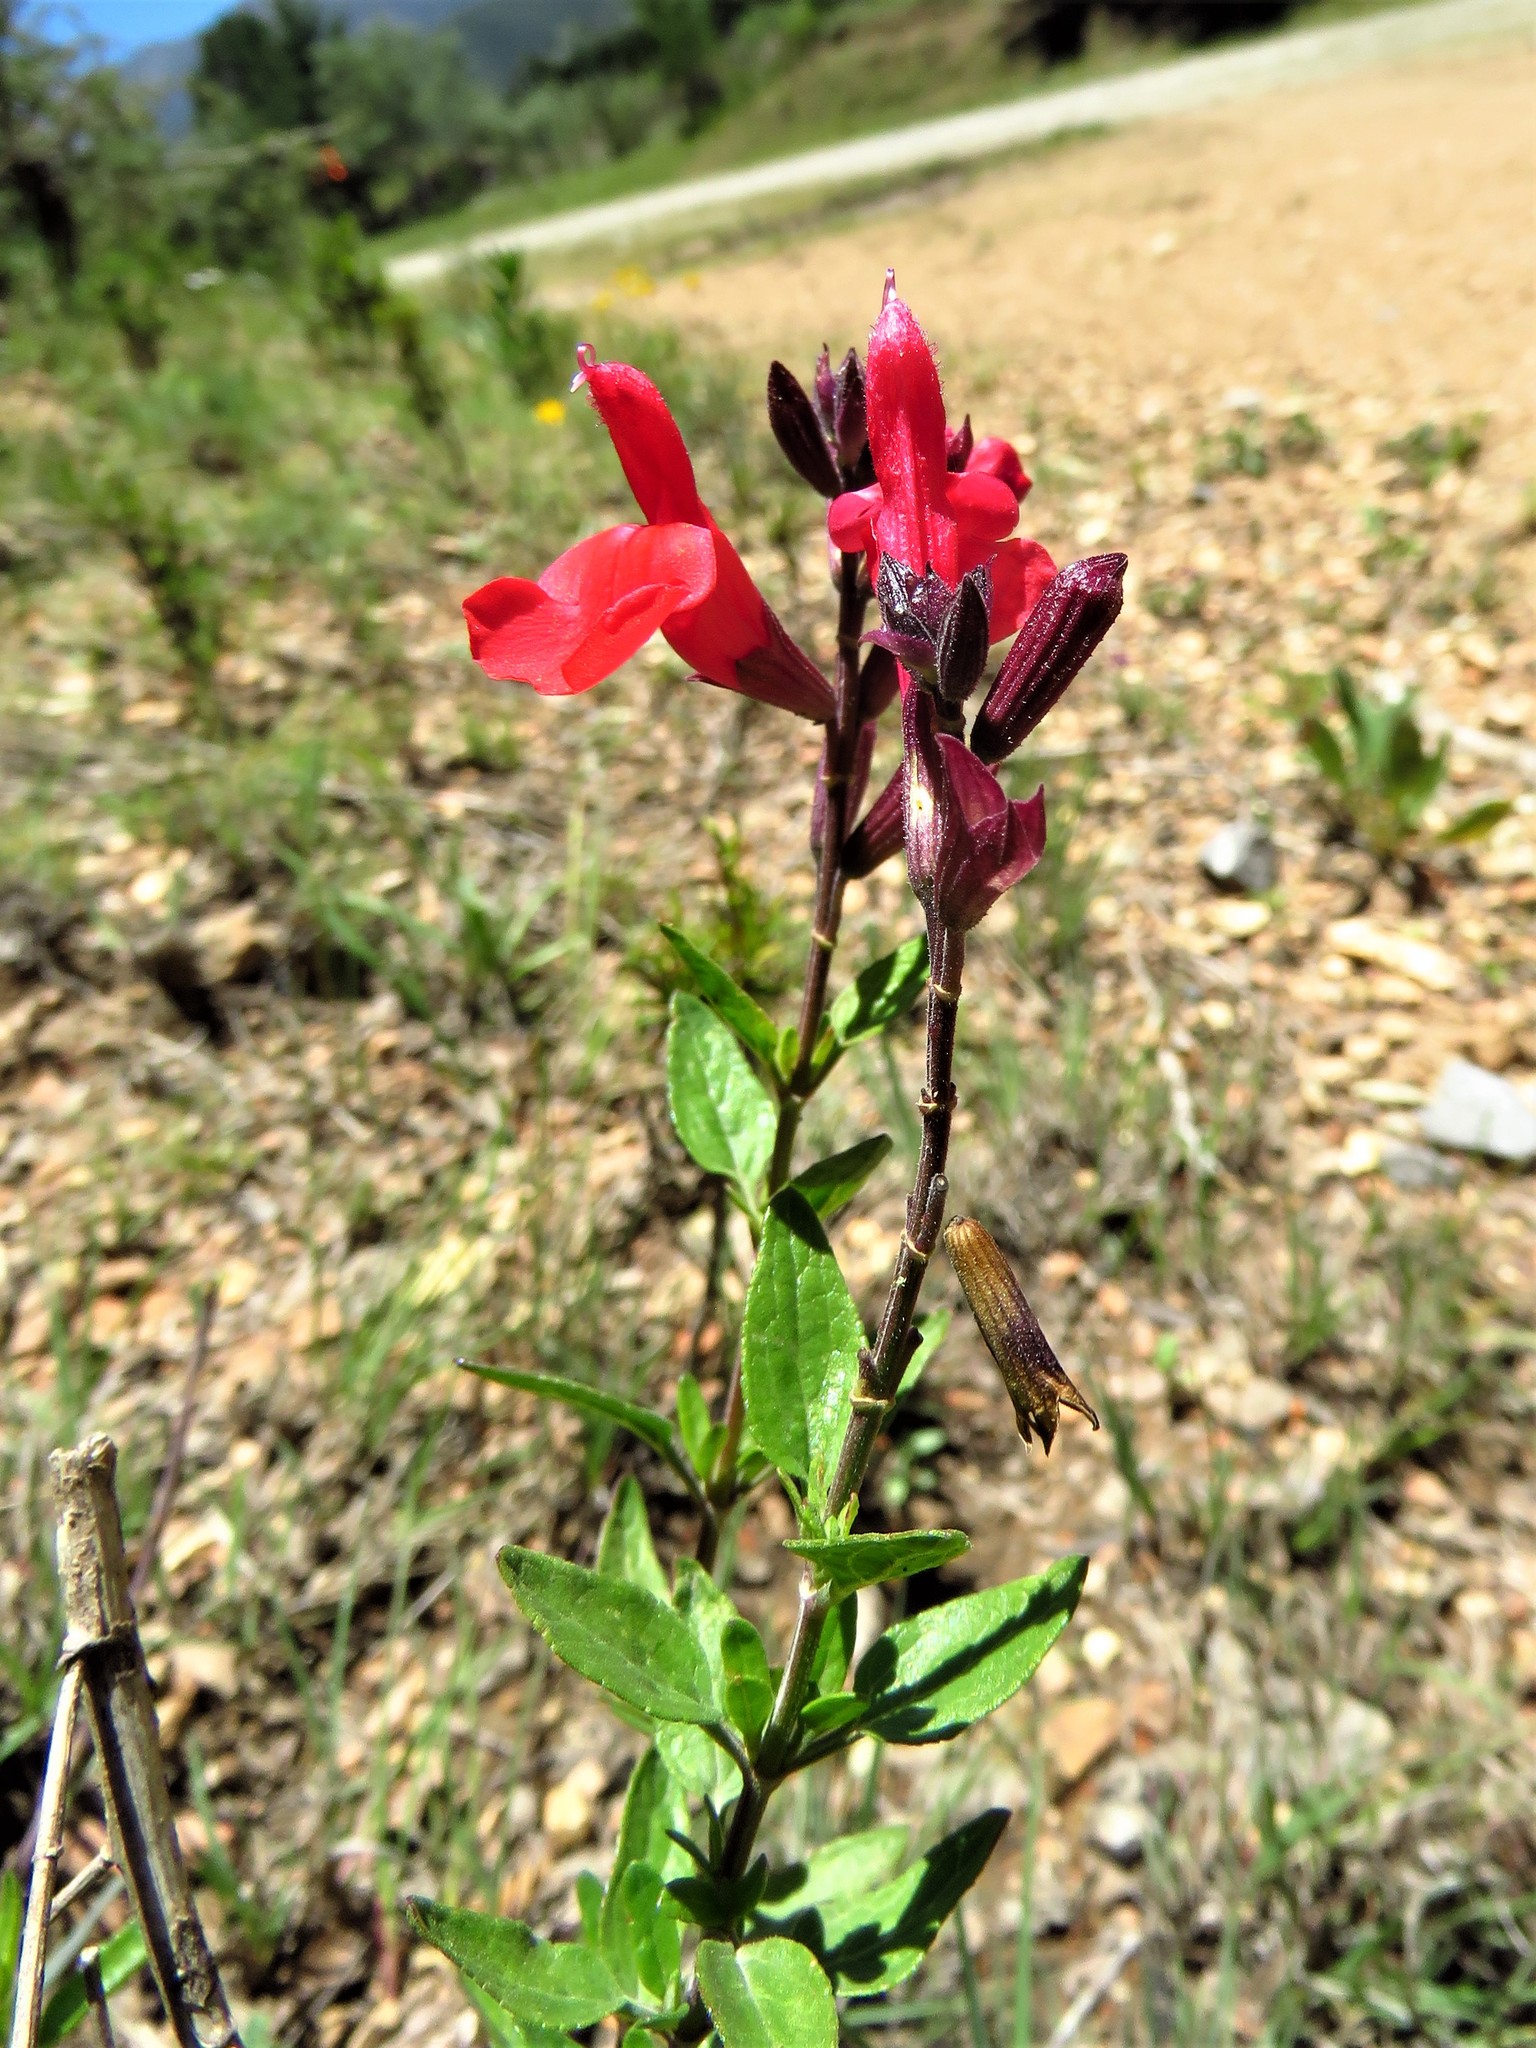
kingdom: Plantae
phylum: Tracheophyta
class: Magnoliopsida
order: Lamiales
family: Lamiaceae
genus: Salvia
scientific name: Salvia greggii
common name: Autumn sage
